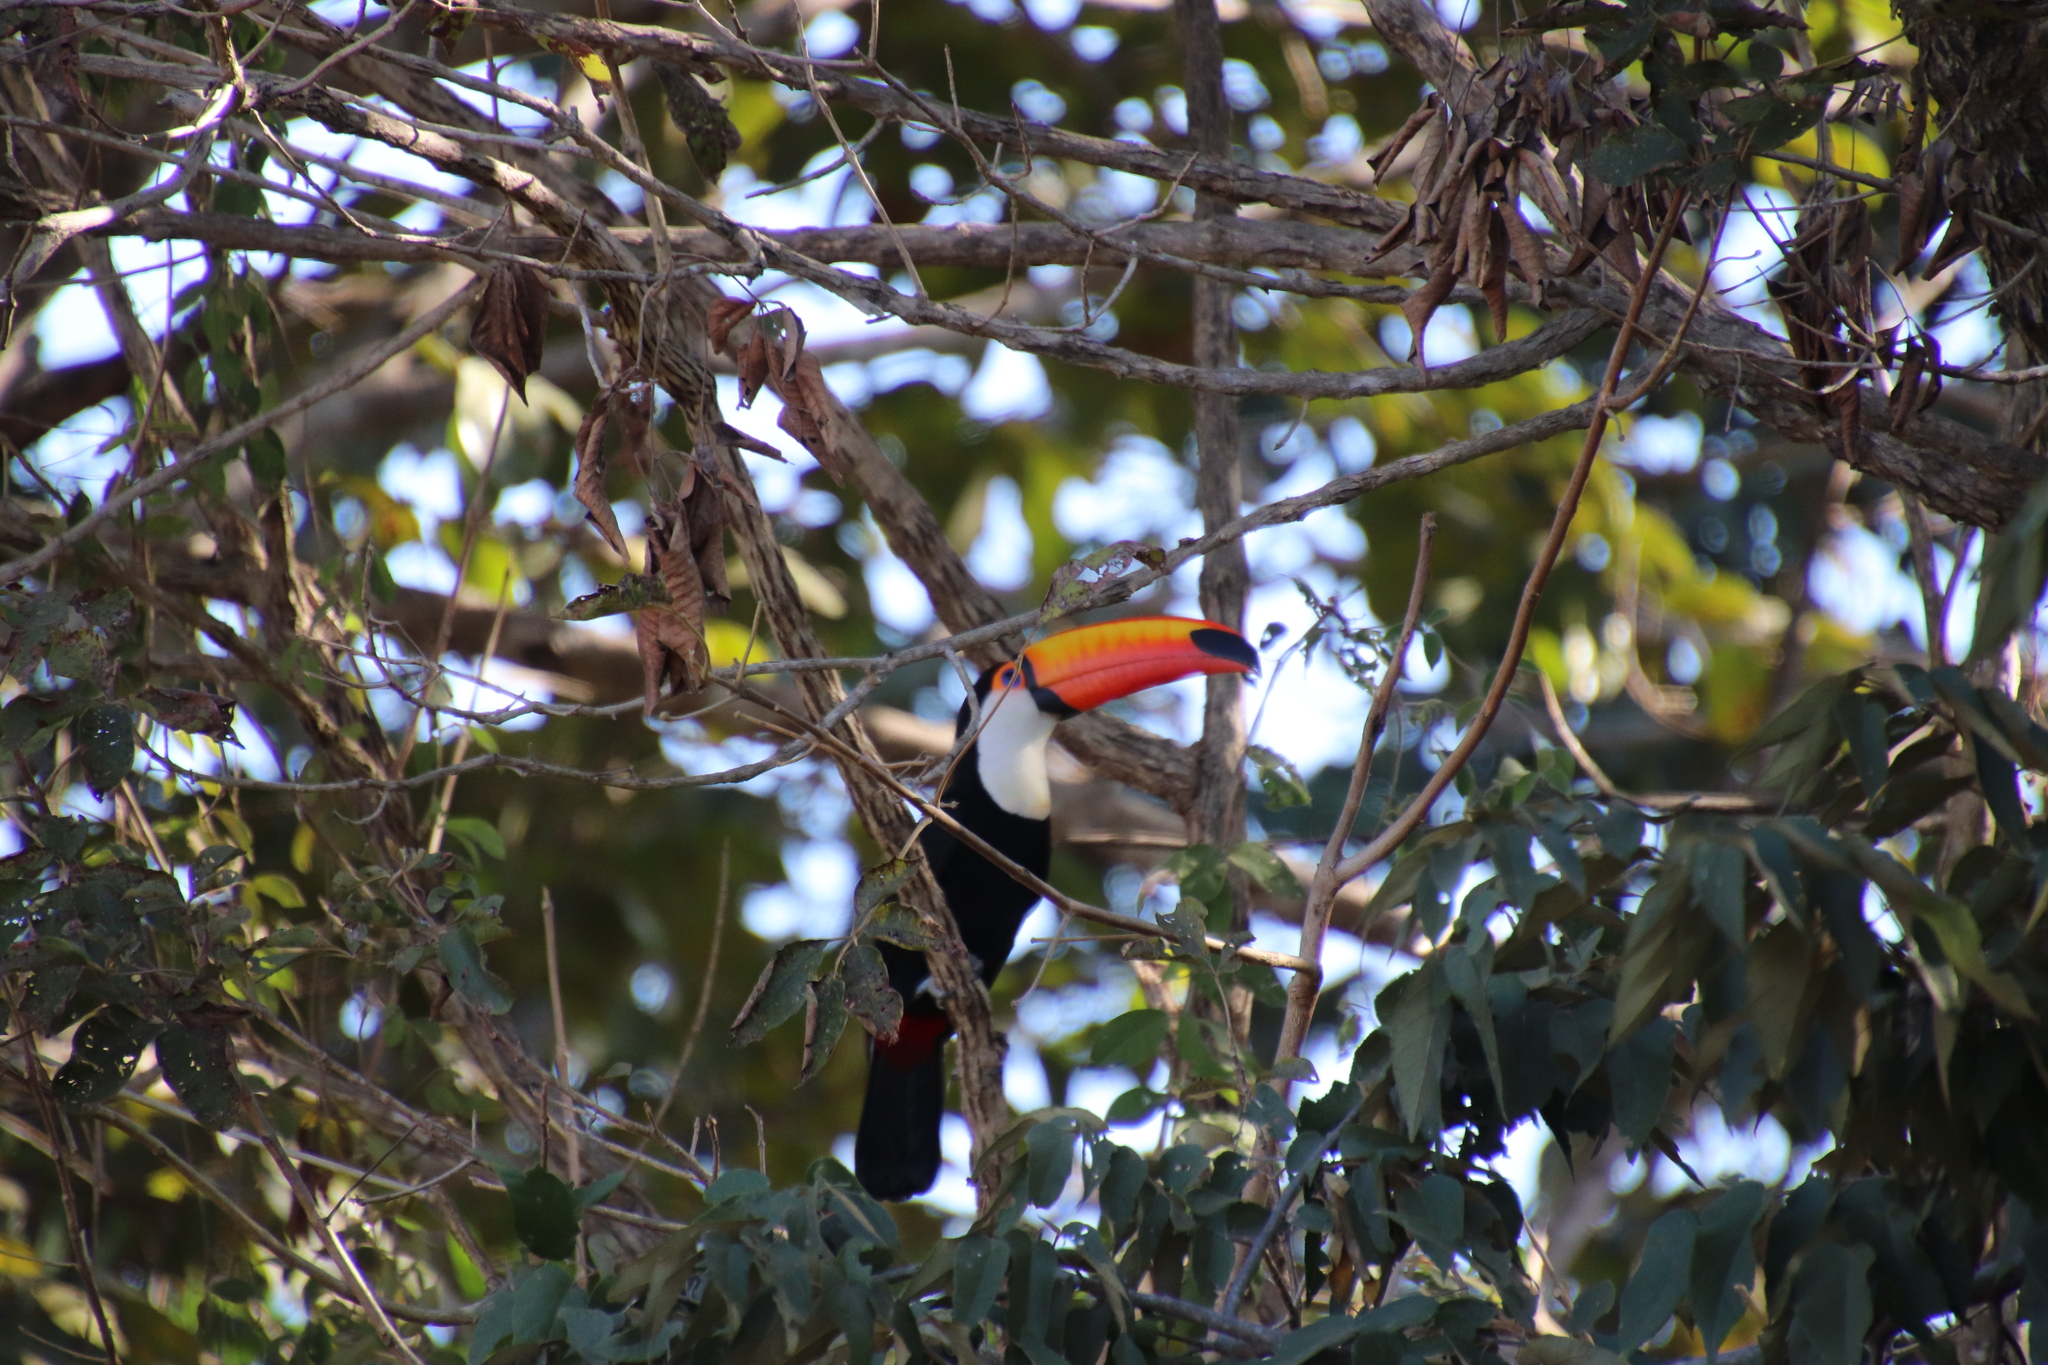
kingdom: Animalia
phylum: Chordata
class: Aves
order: Piciformes
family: Ramphastidae
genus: Ramphastos
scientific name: Ramphastos toco
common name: Toco toucan
